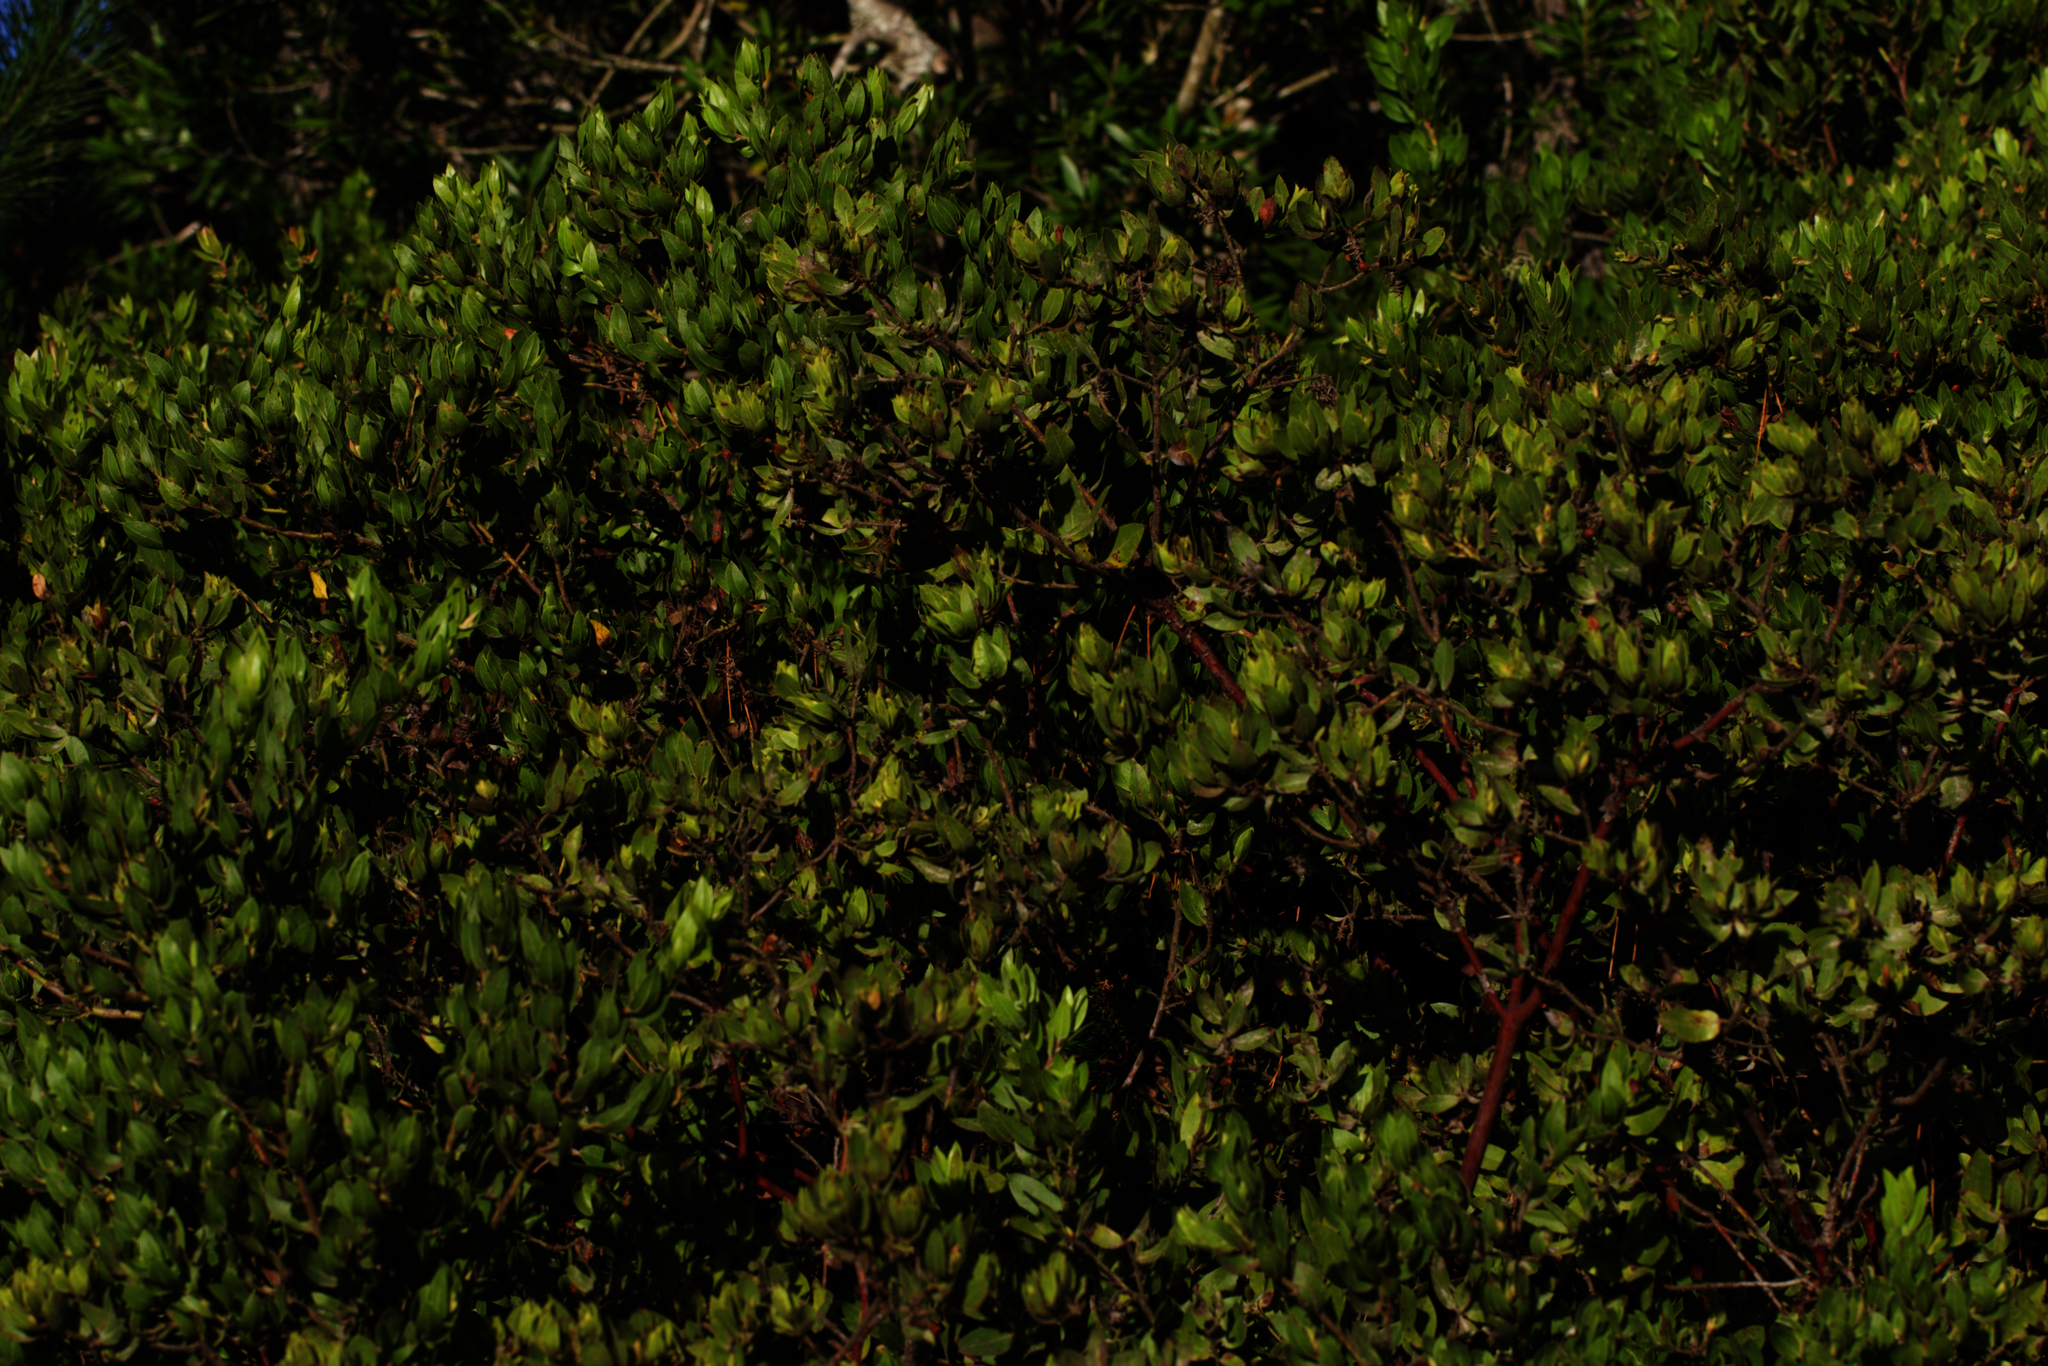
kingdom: Plantae
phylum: Tracheophyta
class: Magnoliopsida
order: Ericales
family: Ericaceae
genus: Arctostaphylos
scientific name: Arctostaphylos virgata
